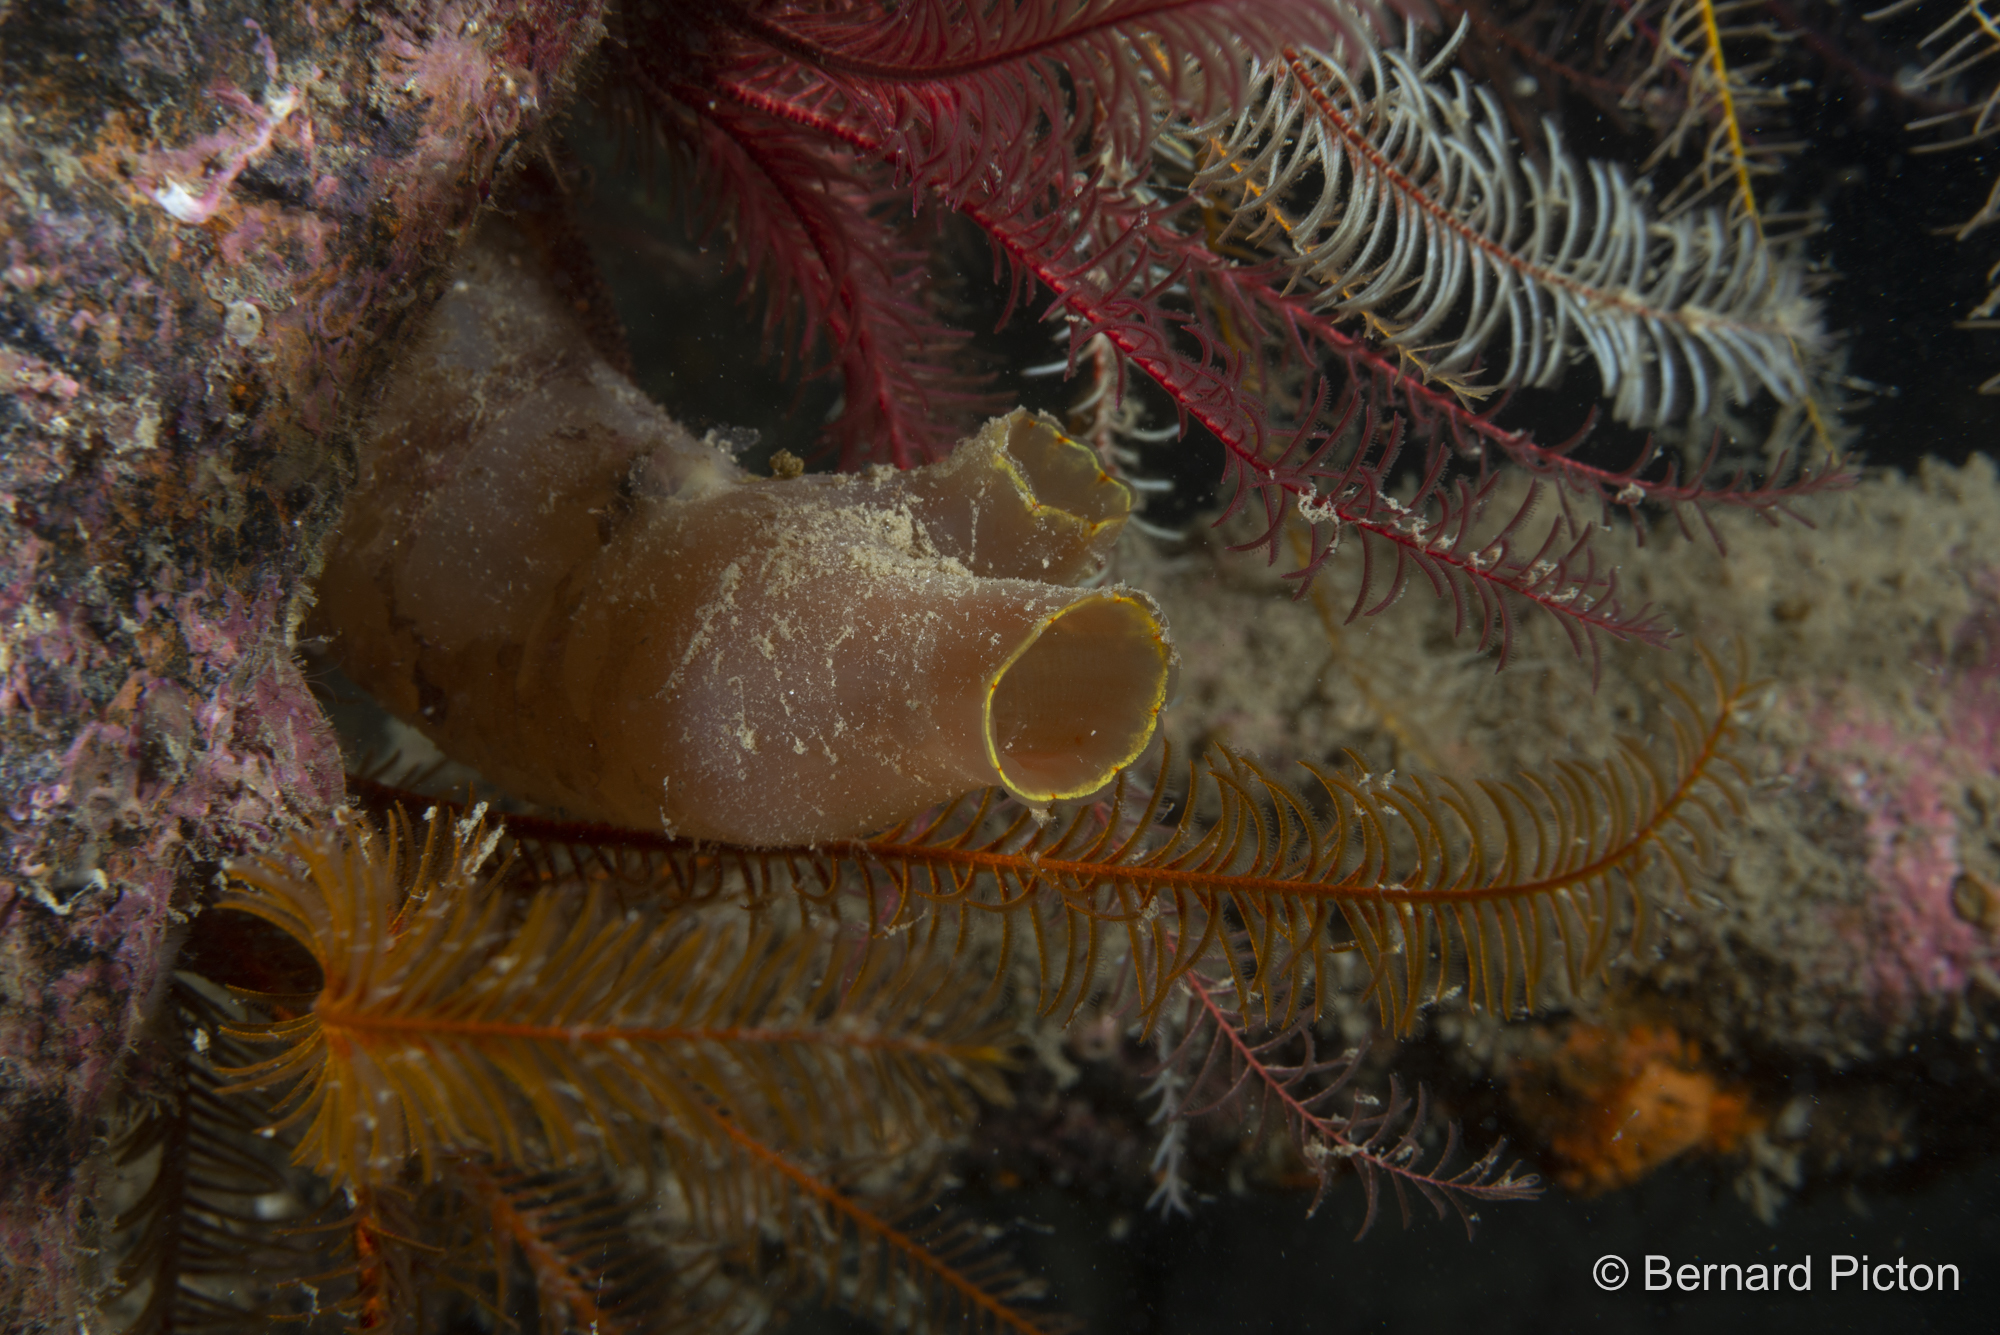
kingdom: Animalia
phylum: Chordata
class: Ascidiacea
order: Phlebobranchia
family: Cionidae
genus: Ciona
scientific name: Ciona intestinalis
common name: Vase tunicate
